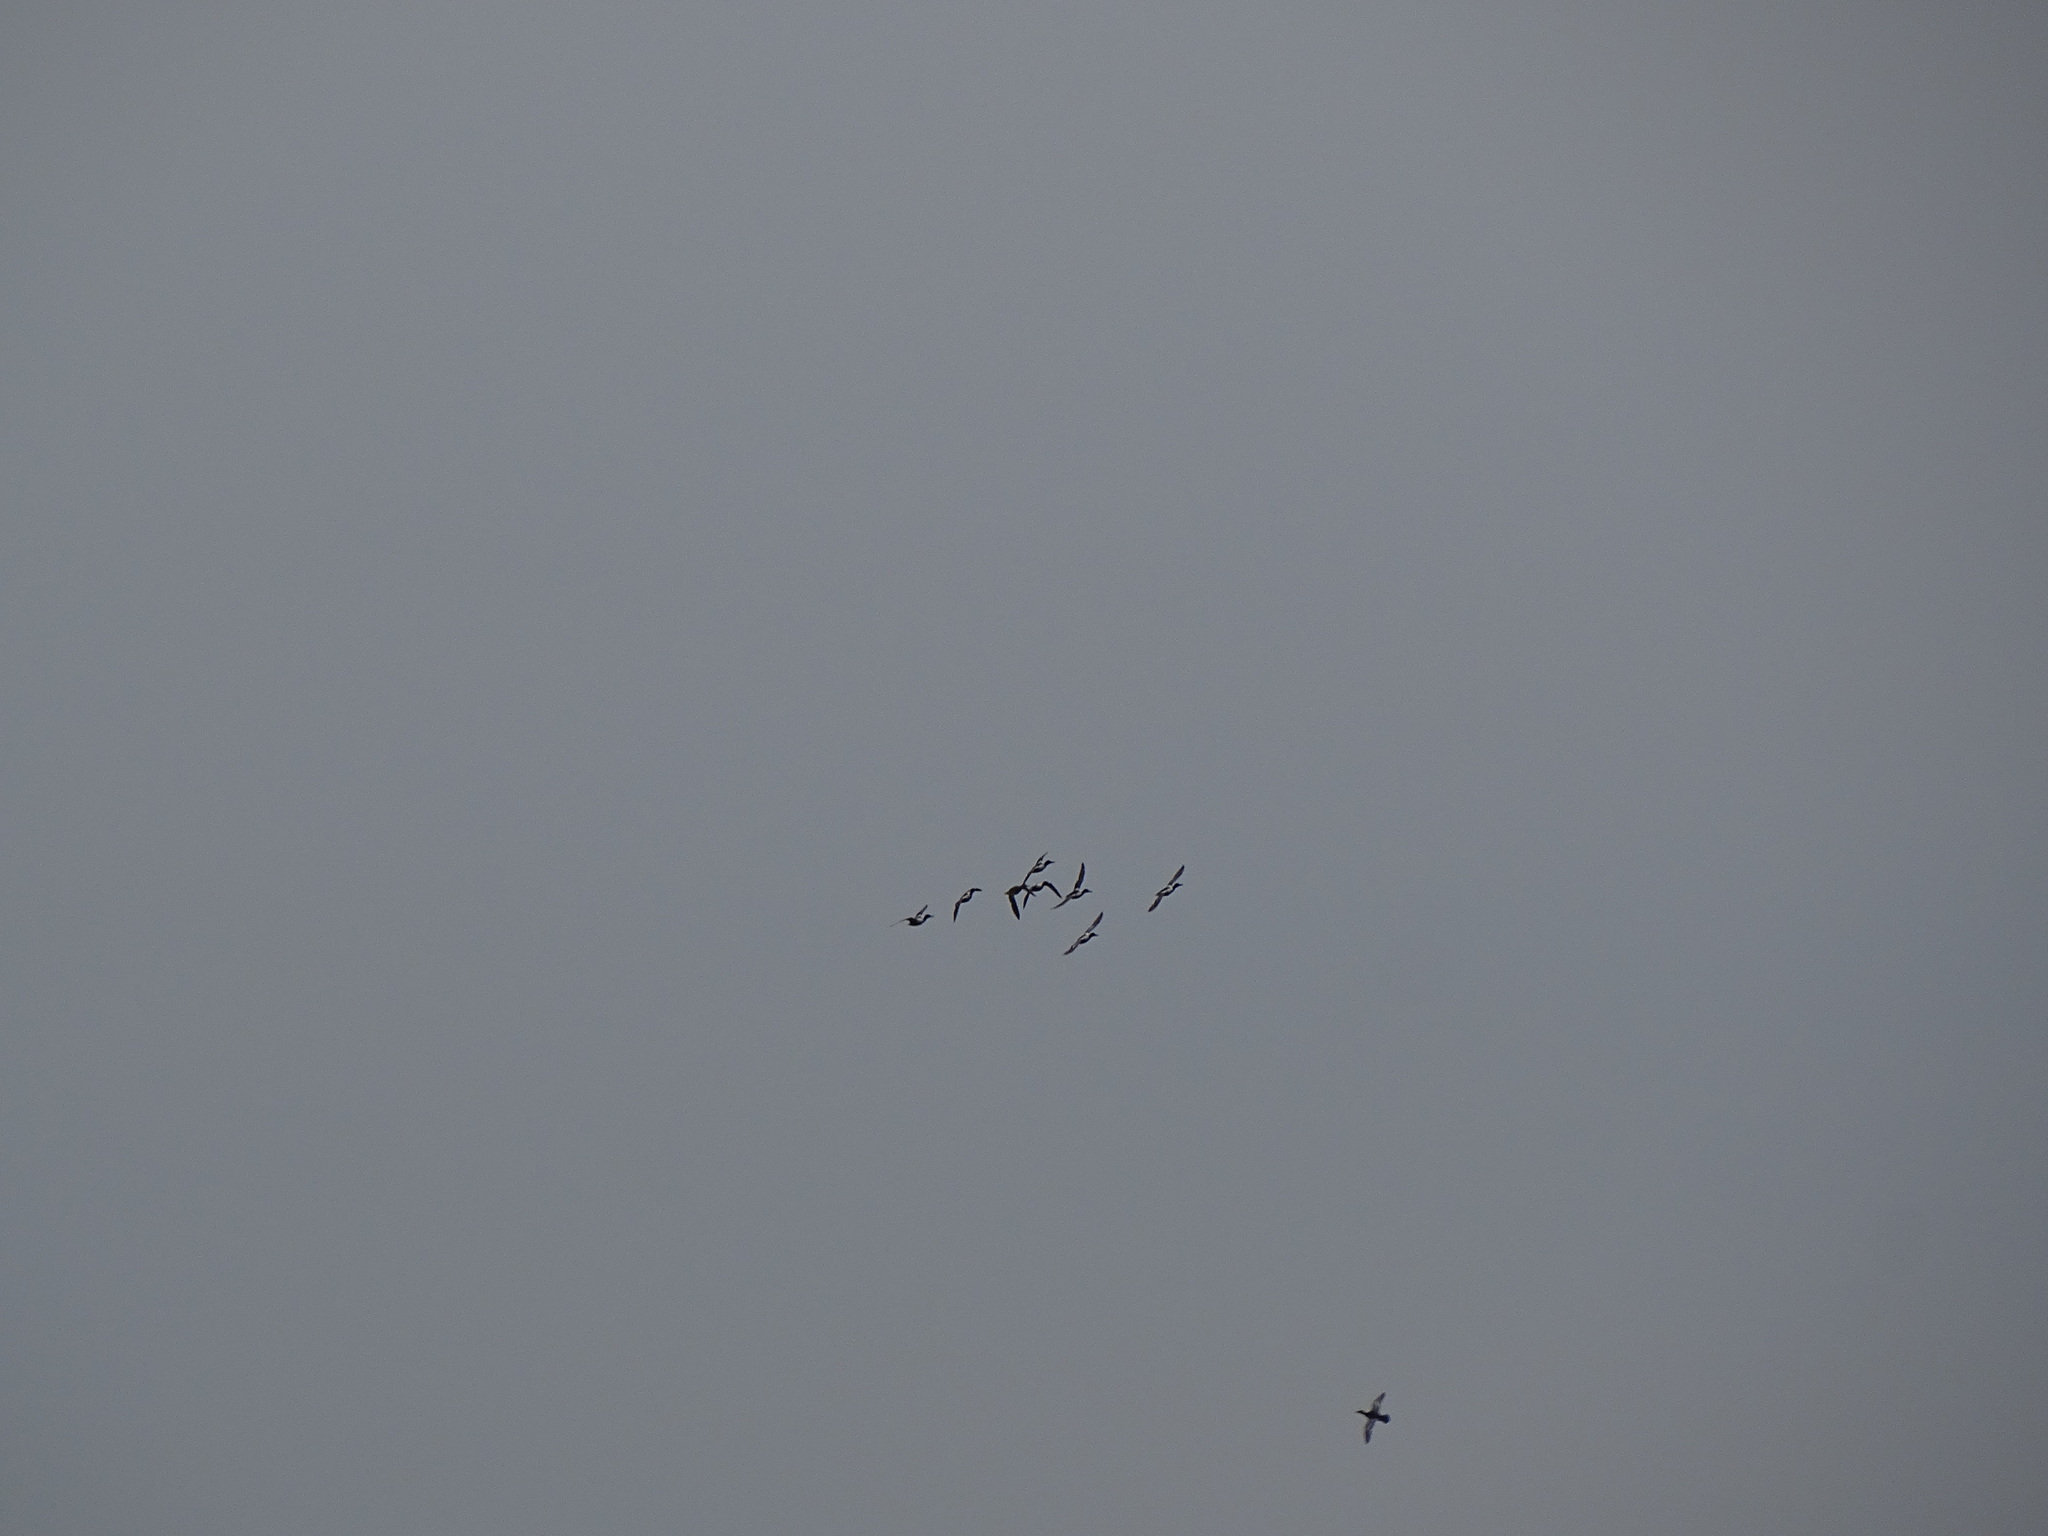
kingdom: Animalia
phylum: Chordata
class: Aves
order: Anseriformes
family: Anatidae
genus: Spatula
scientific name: Spatula clypeata
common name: Northern shoveler
